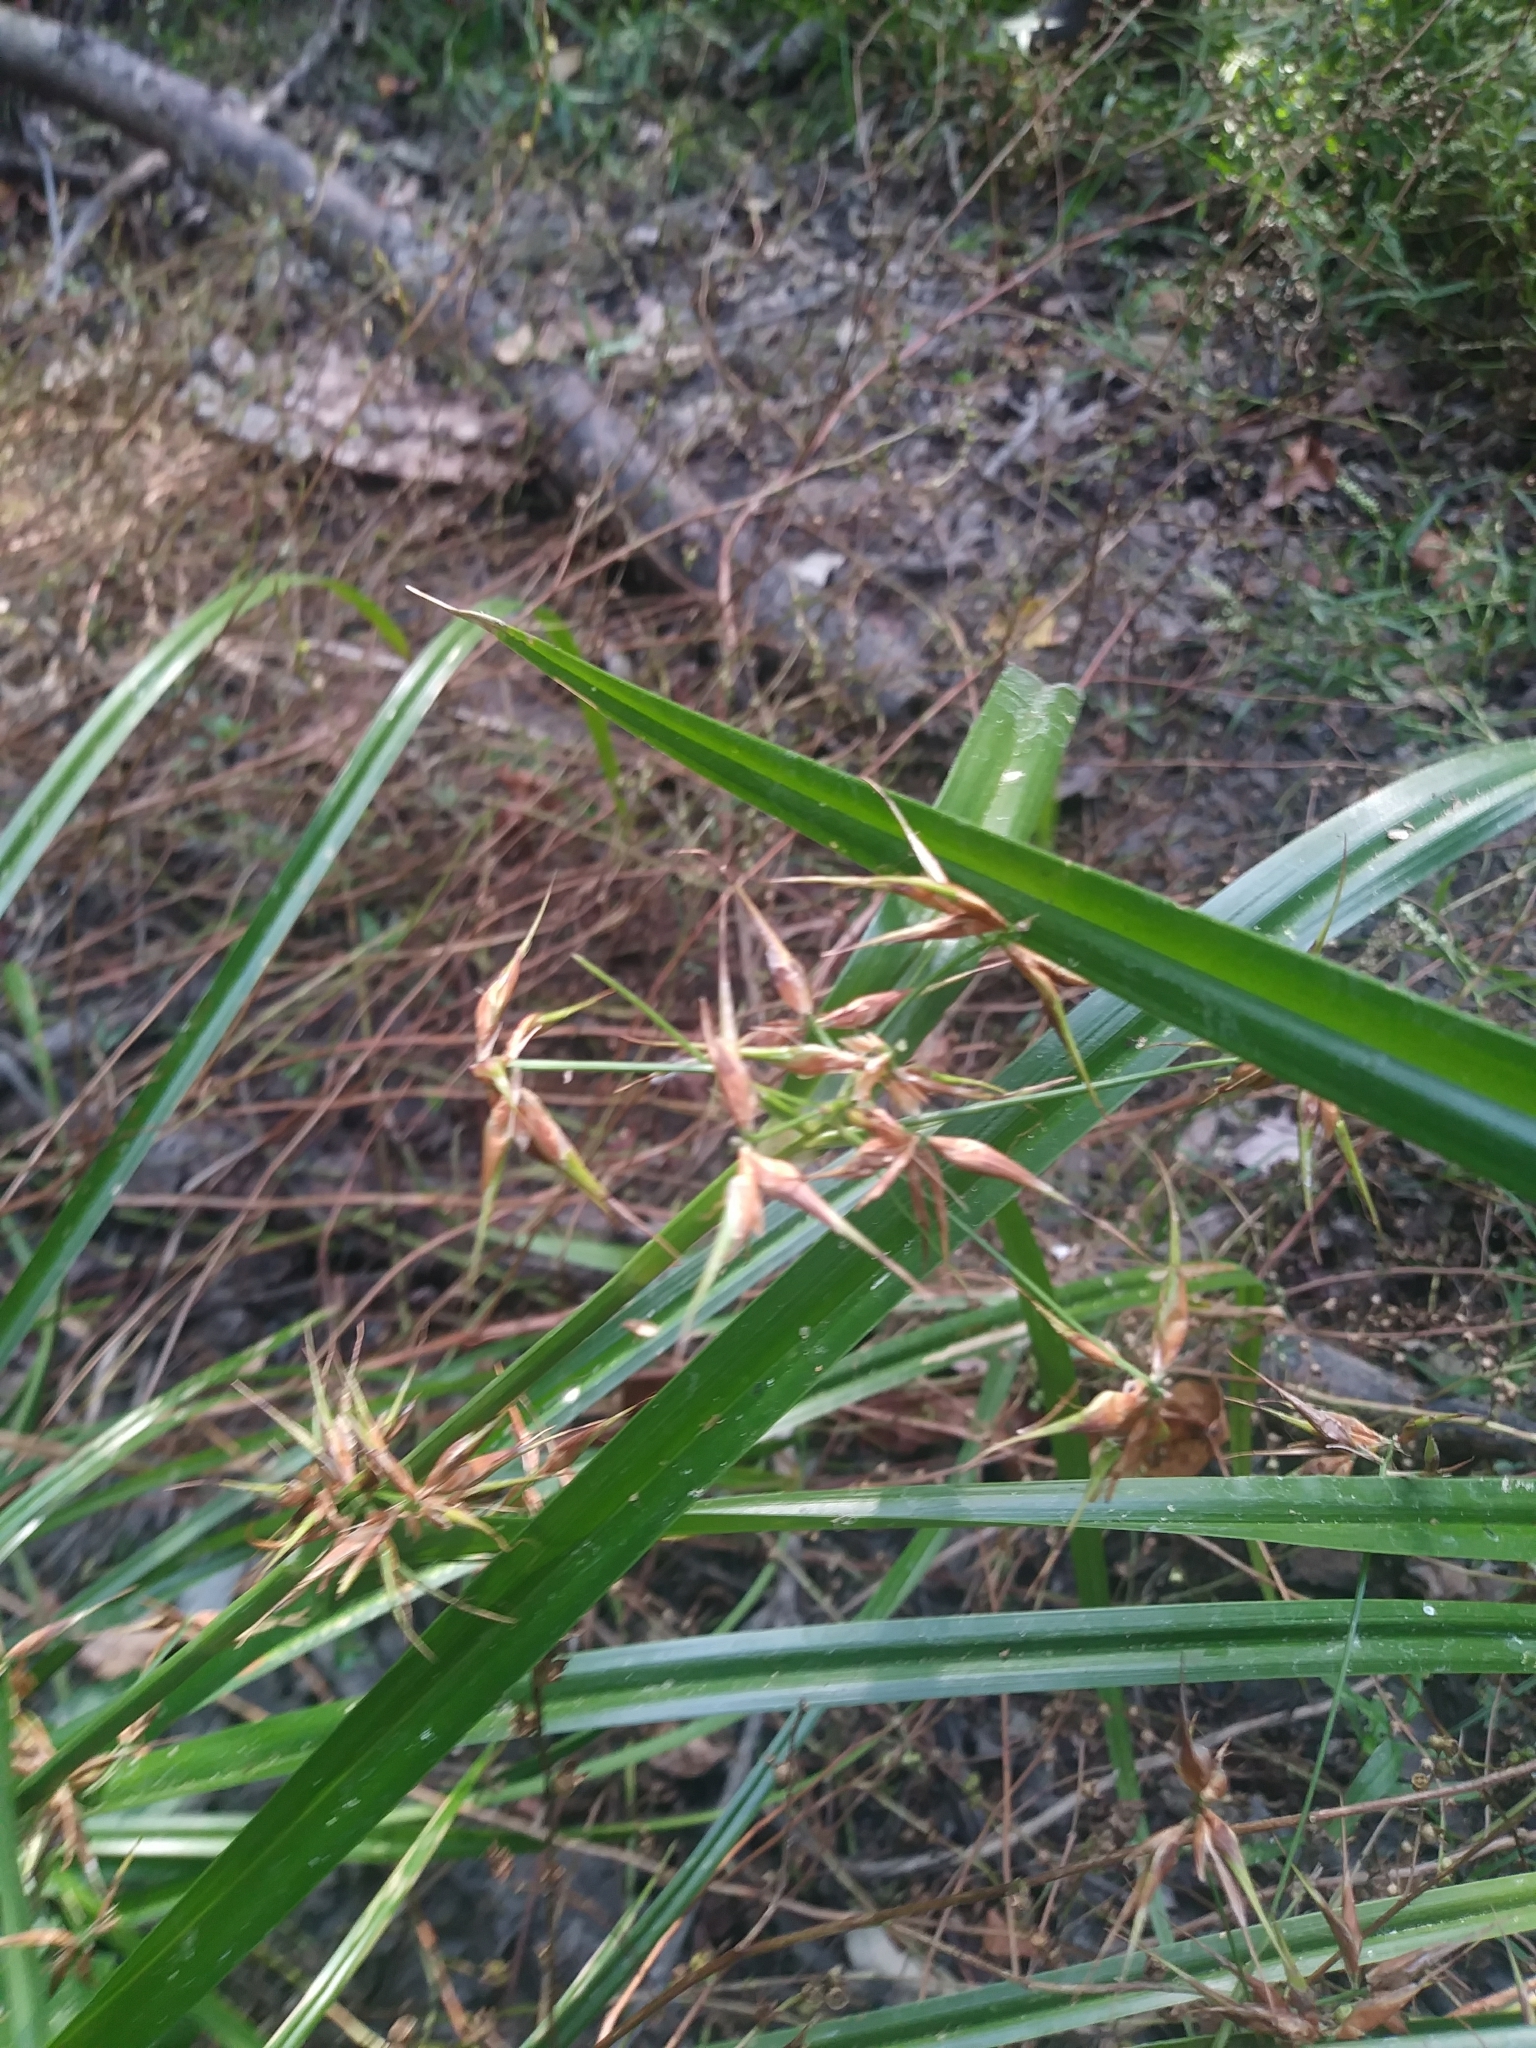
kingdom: Plantae
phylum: Tracheophyta
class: Liliopsida
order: Poales
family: Cyperaceae
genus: Rhynchospora
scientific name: Rhynchospora corniculata
